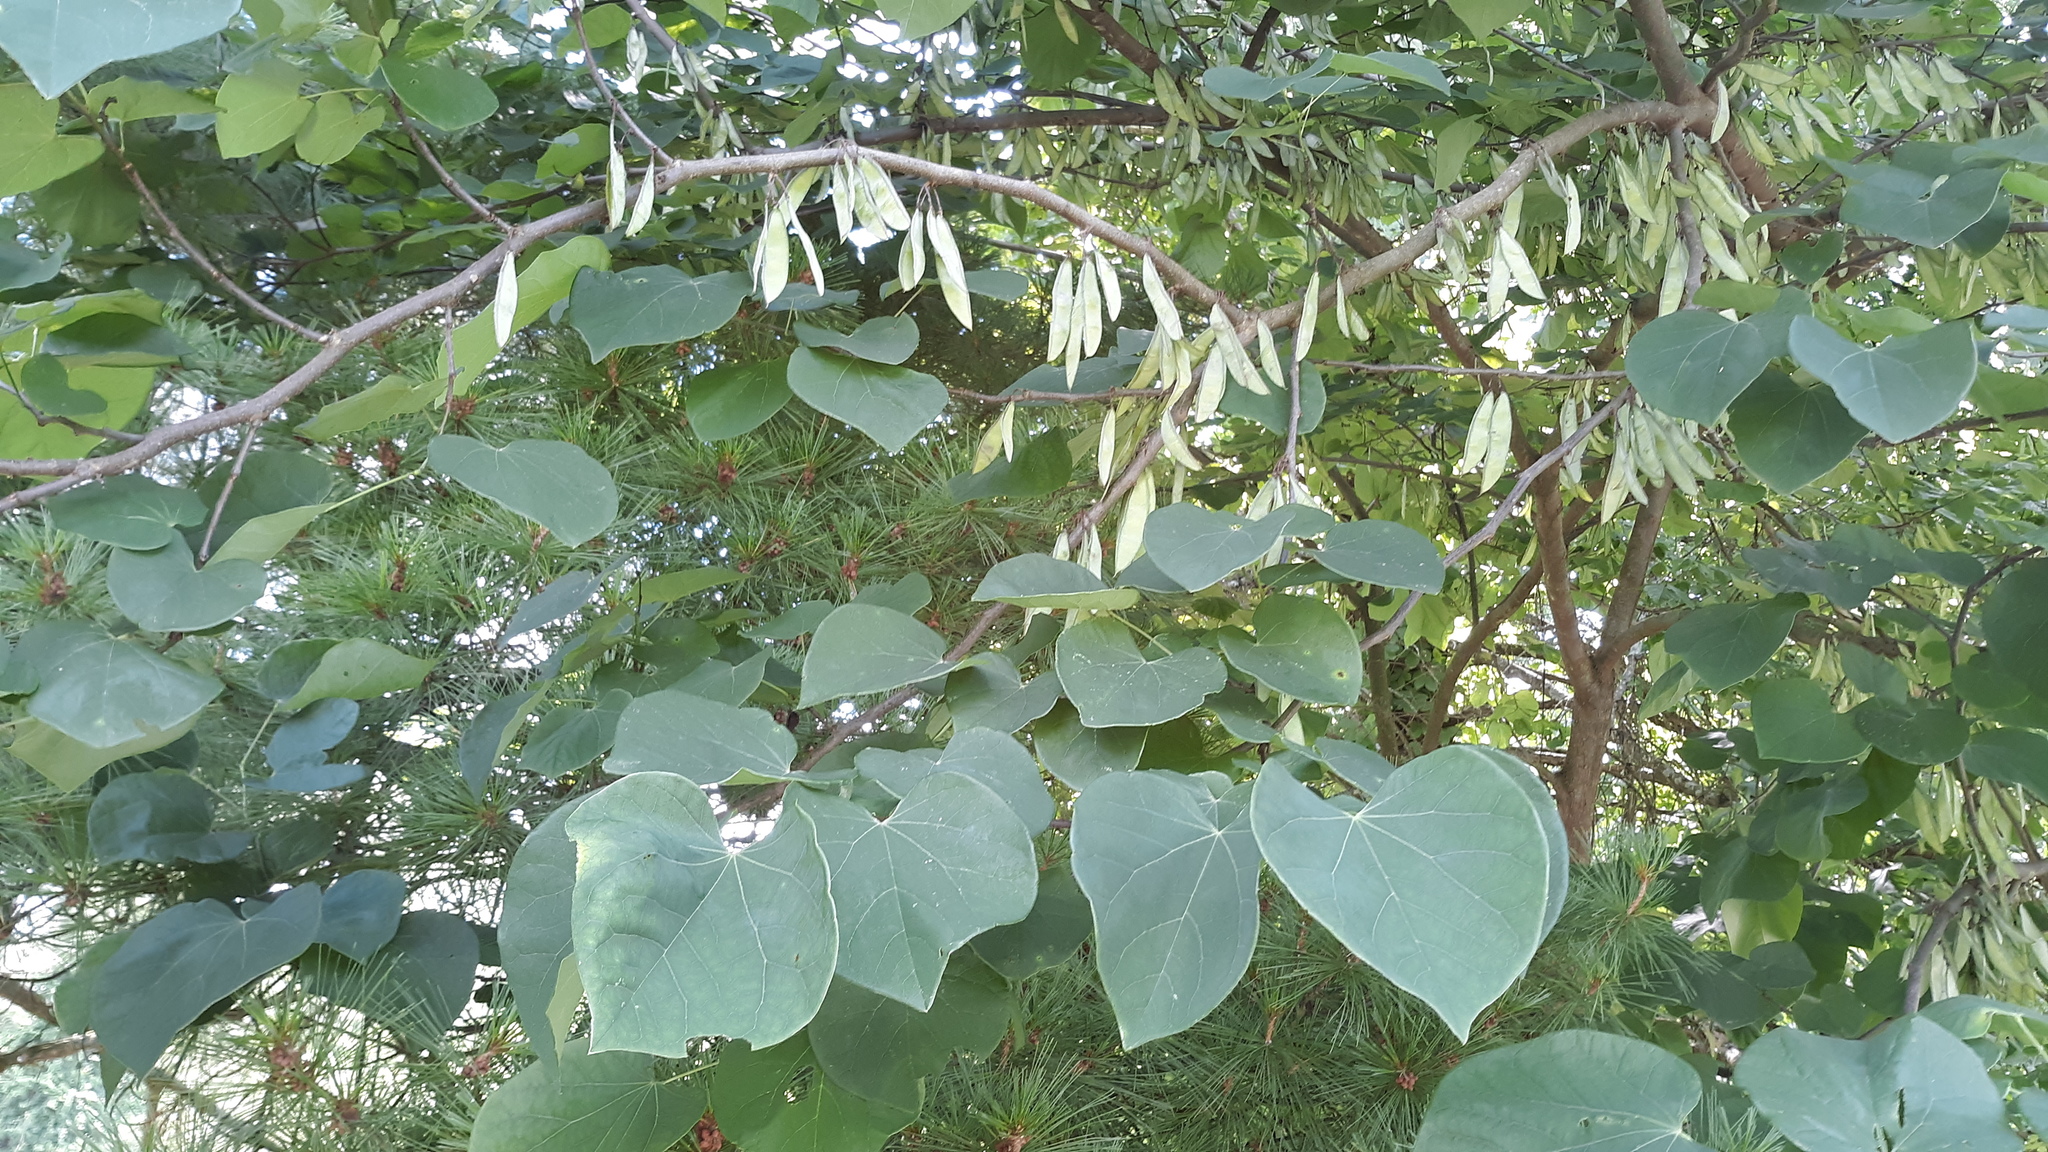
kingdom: Plantae
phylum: Tracheophyta
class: Magnoliopsida
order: Fabales
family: Fabaceae
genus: Cercis
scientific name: Cercis canadensis
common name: Eastern redbud
